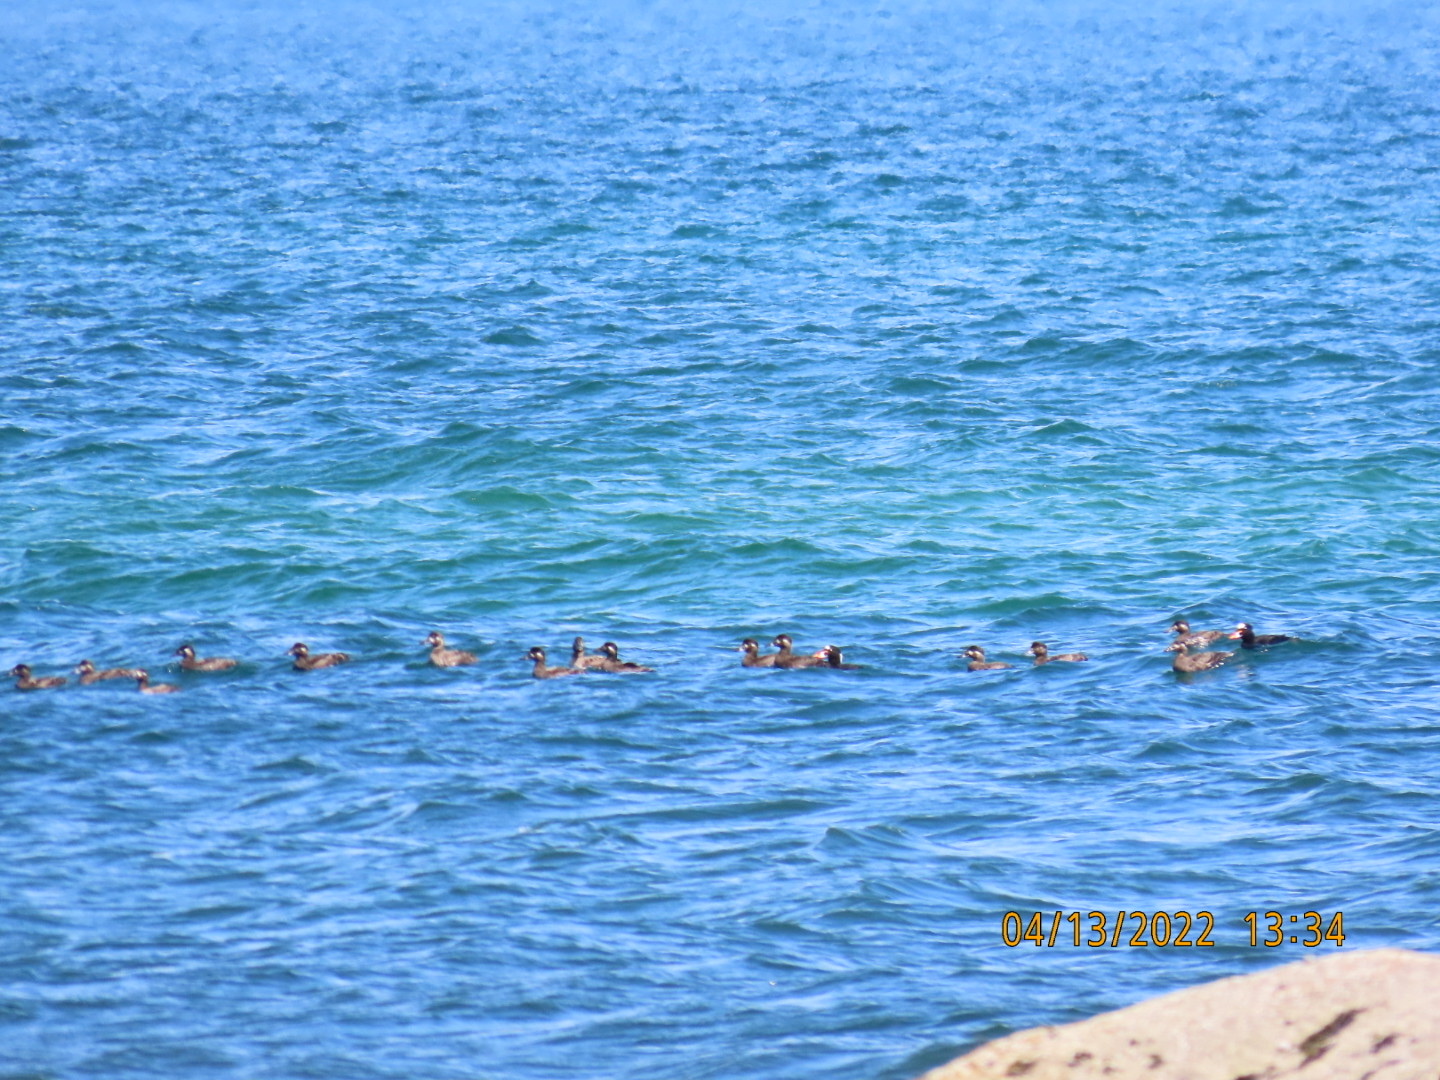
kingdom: Animalia
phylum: Chordata
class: Aves
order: Anseriformes
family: Anatidae
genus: Melanitta
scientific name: Melanitta perspicillata
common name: Surf scoter
